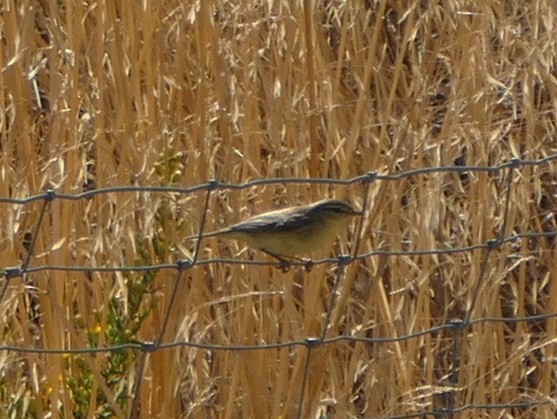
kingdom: Animalia
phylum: Chordata
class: Aves
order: Passeriformes
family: Phylloscopidae
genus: Phylloscopus
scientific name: Phylloscopus trochilus
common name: Willow warbler
